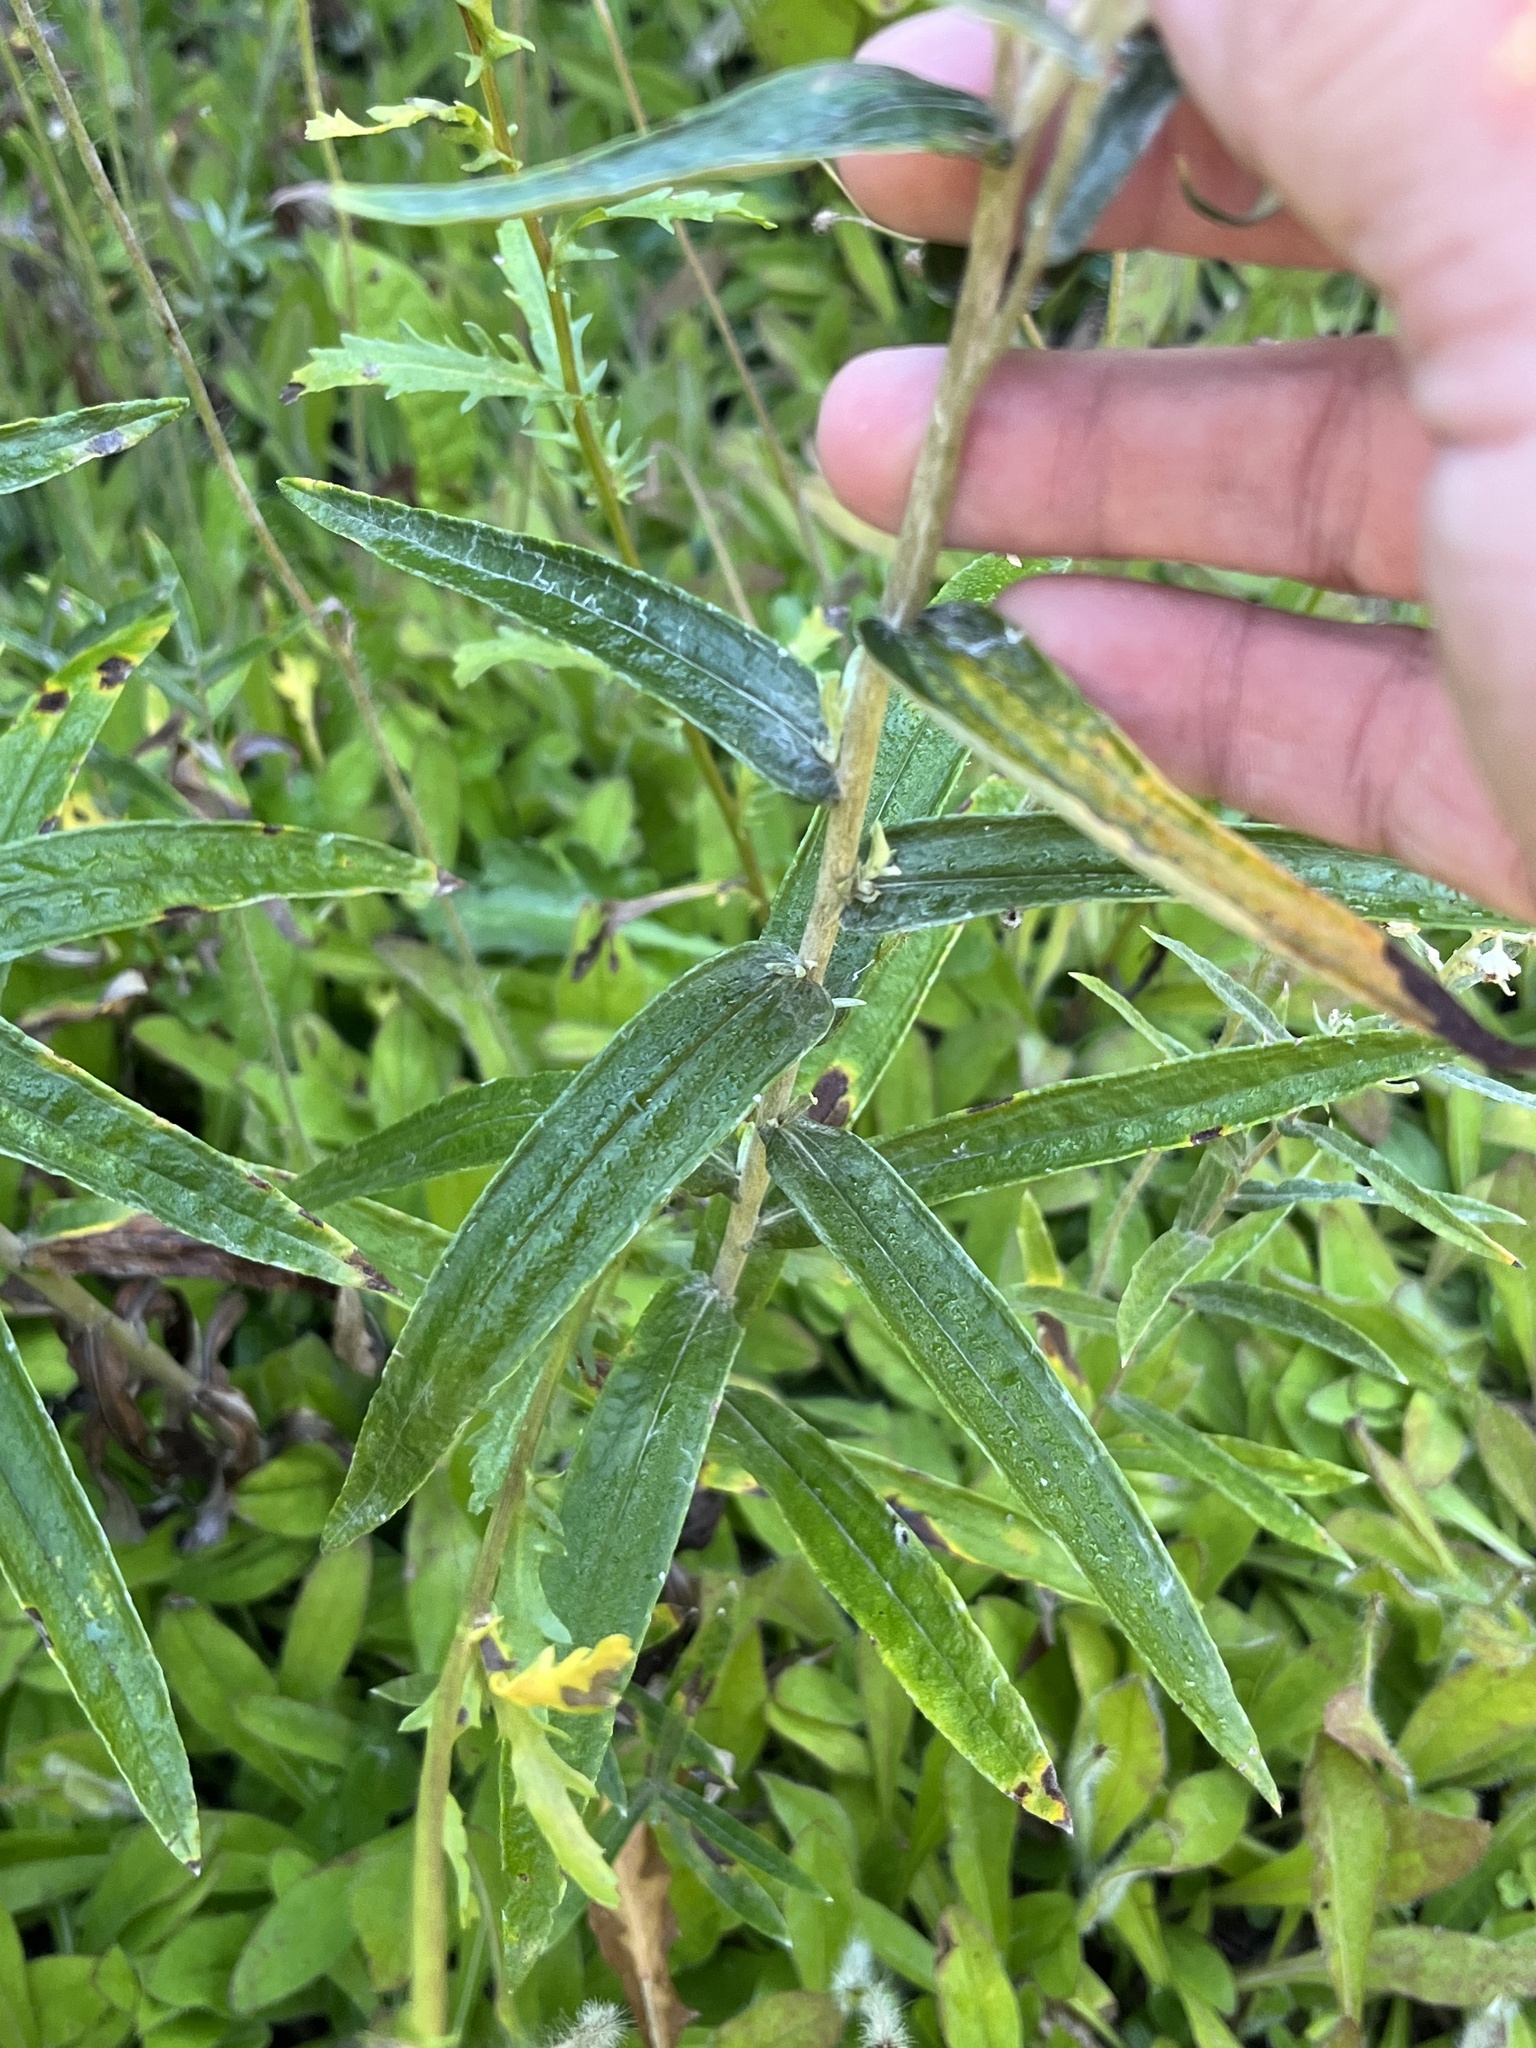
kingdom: Plantae
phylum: Tracheophyta
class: Magnoliopsida
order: Asterales
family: Asteraceae
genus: Anaphalis
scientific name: Anaphalis margaritacea
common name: Pearly everlasting
